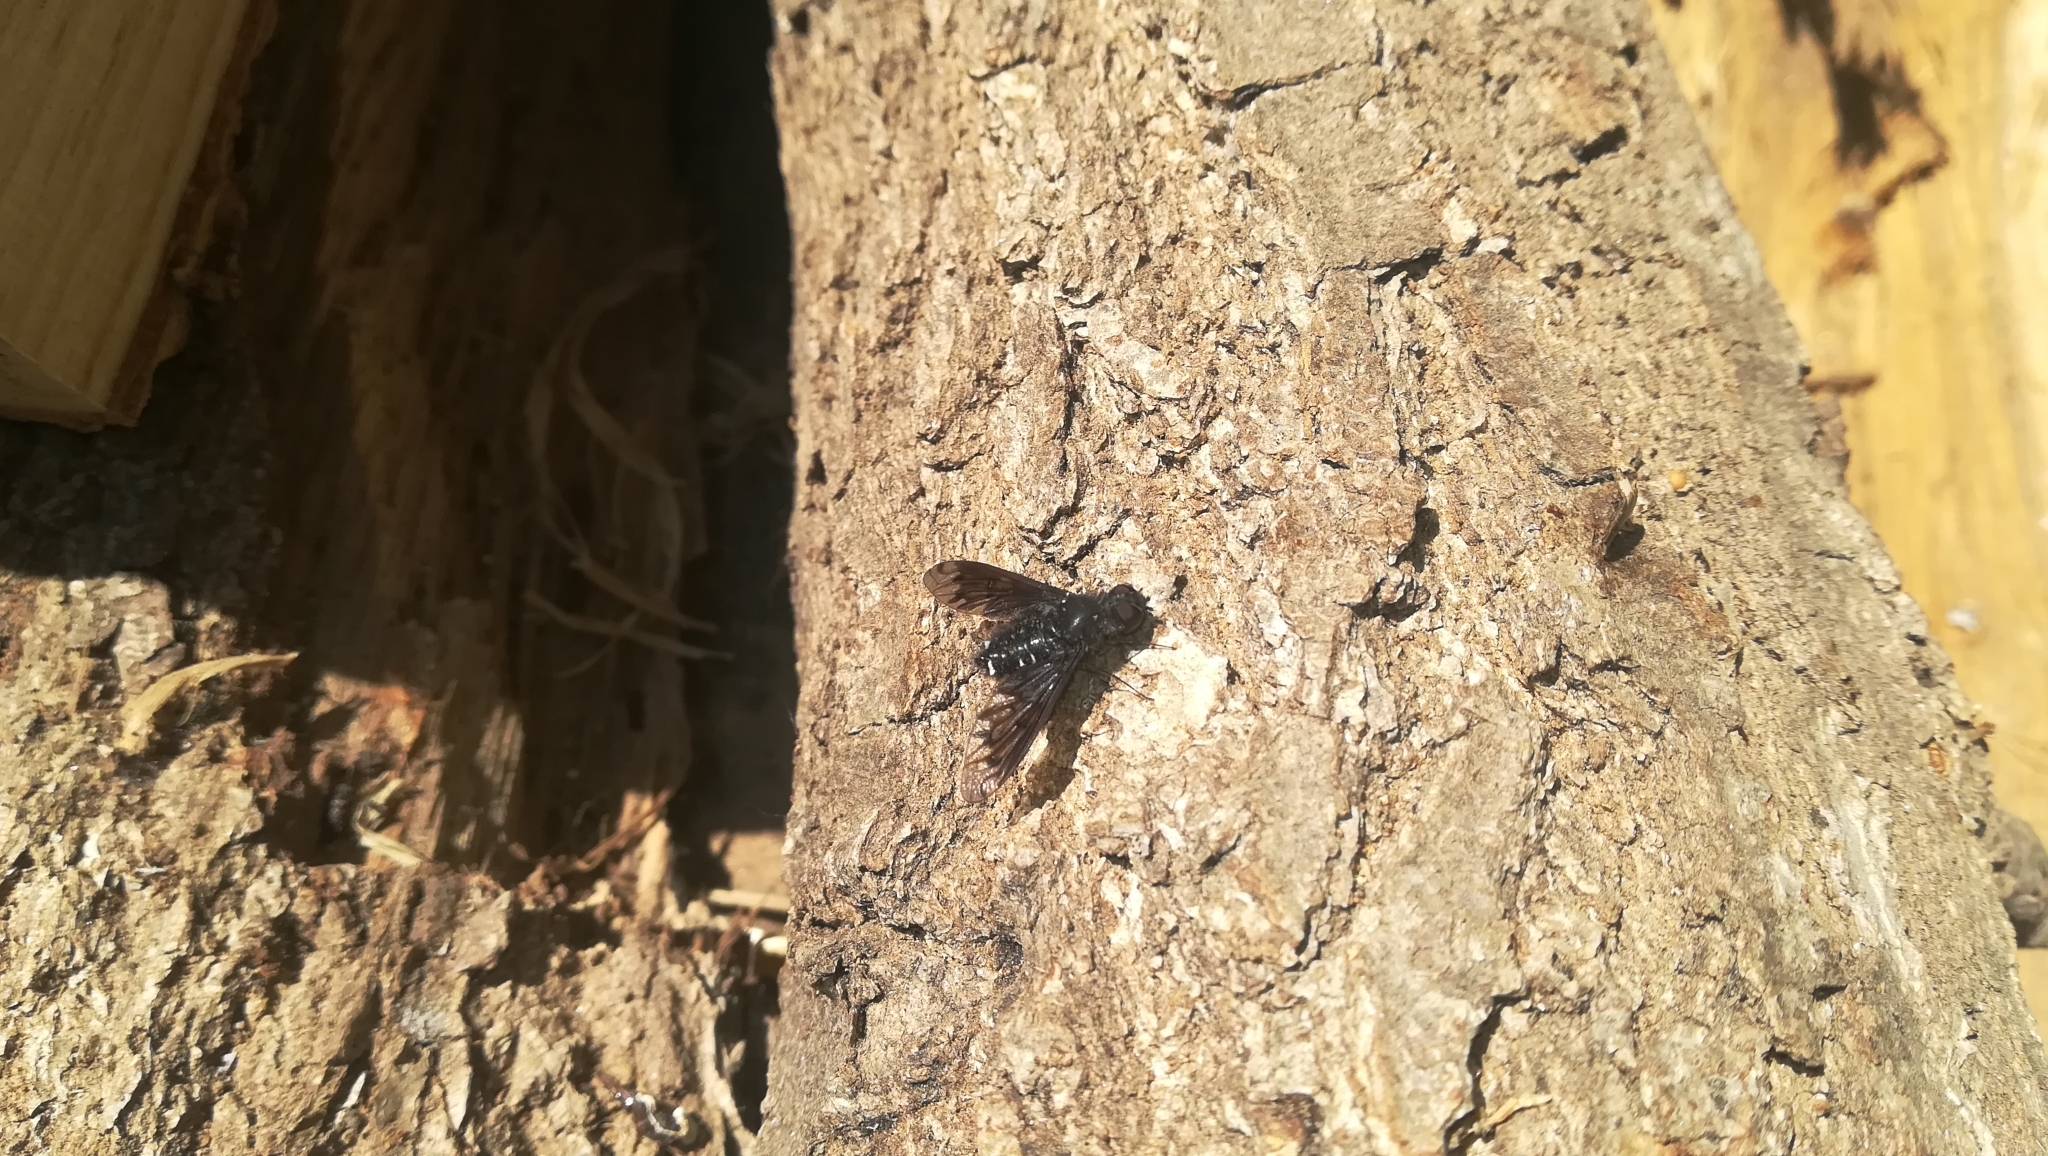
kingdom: Animalia
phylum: Arthropoda
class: Insecta
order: Diptera
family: Bombyliidae
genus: Anthrax
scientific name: Anthrax anthrax
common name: Anthracite bee-fly
